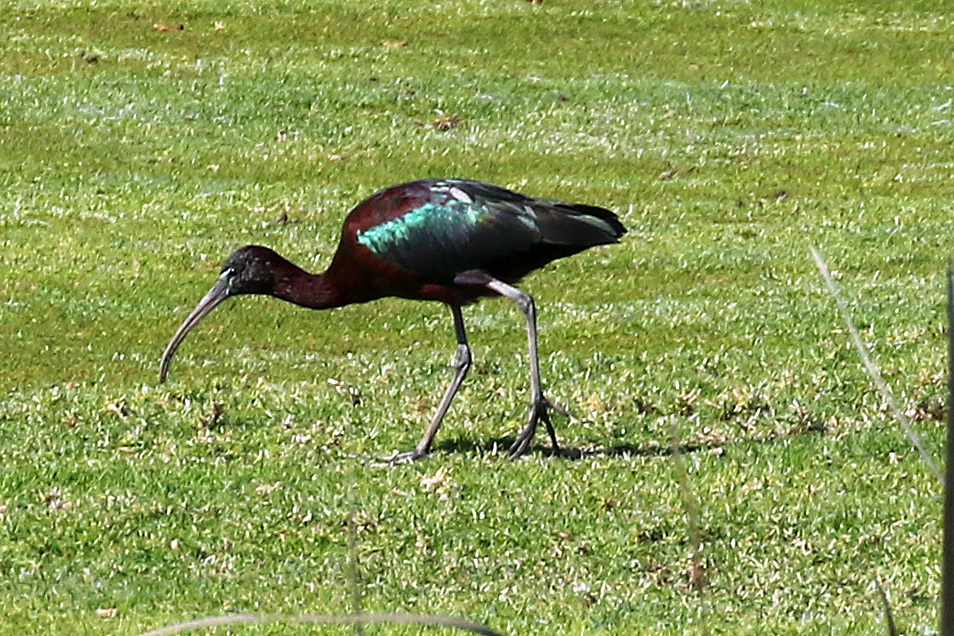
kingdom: Animalia
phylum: Chordata
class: Aves
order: Pelecaniformes
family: Threskiornithidae
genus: Plegadis
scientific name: Plegadis falcinellus
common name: Glossy ibis
